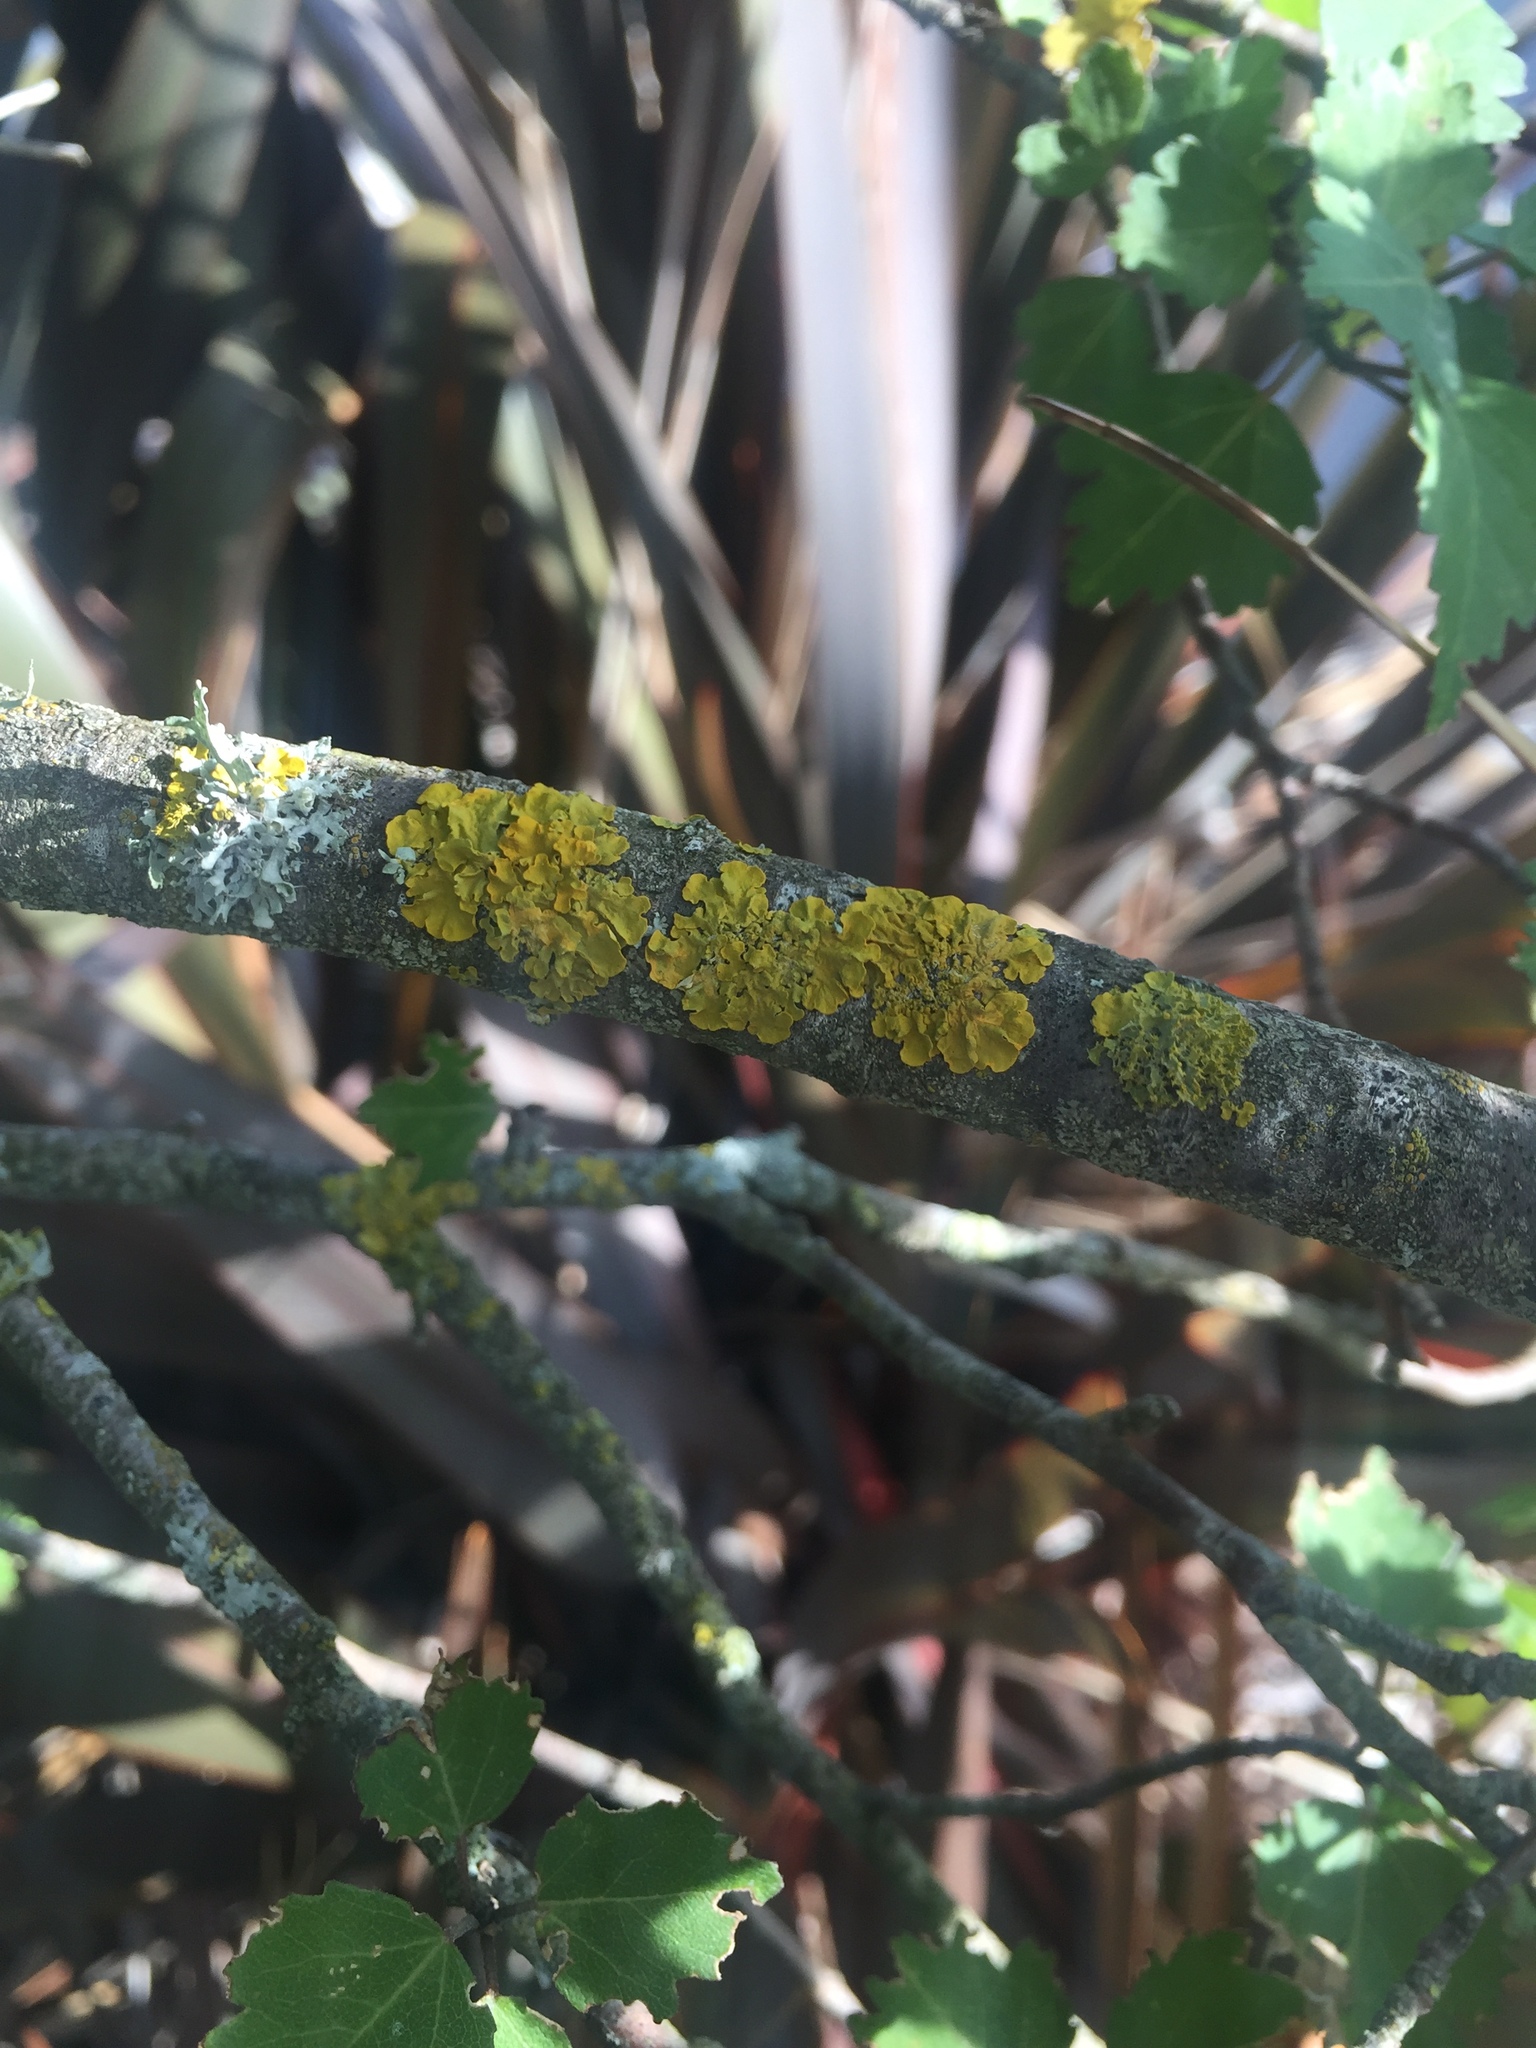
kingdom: Fungi
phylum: Ascomycota
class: Lecanoromycetes
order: Teloschistales
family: Teloschistaceae
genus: Xanthoria
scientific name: Xanthoria parietina
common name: Common orange lichen
